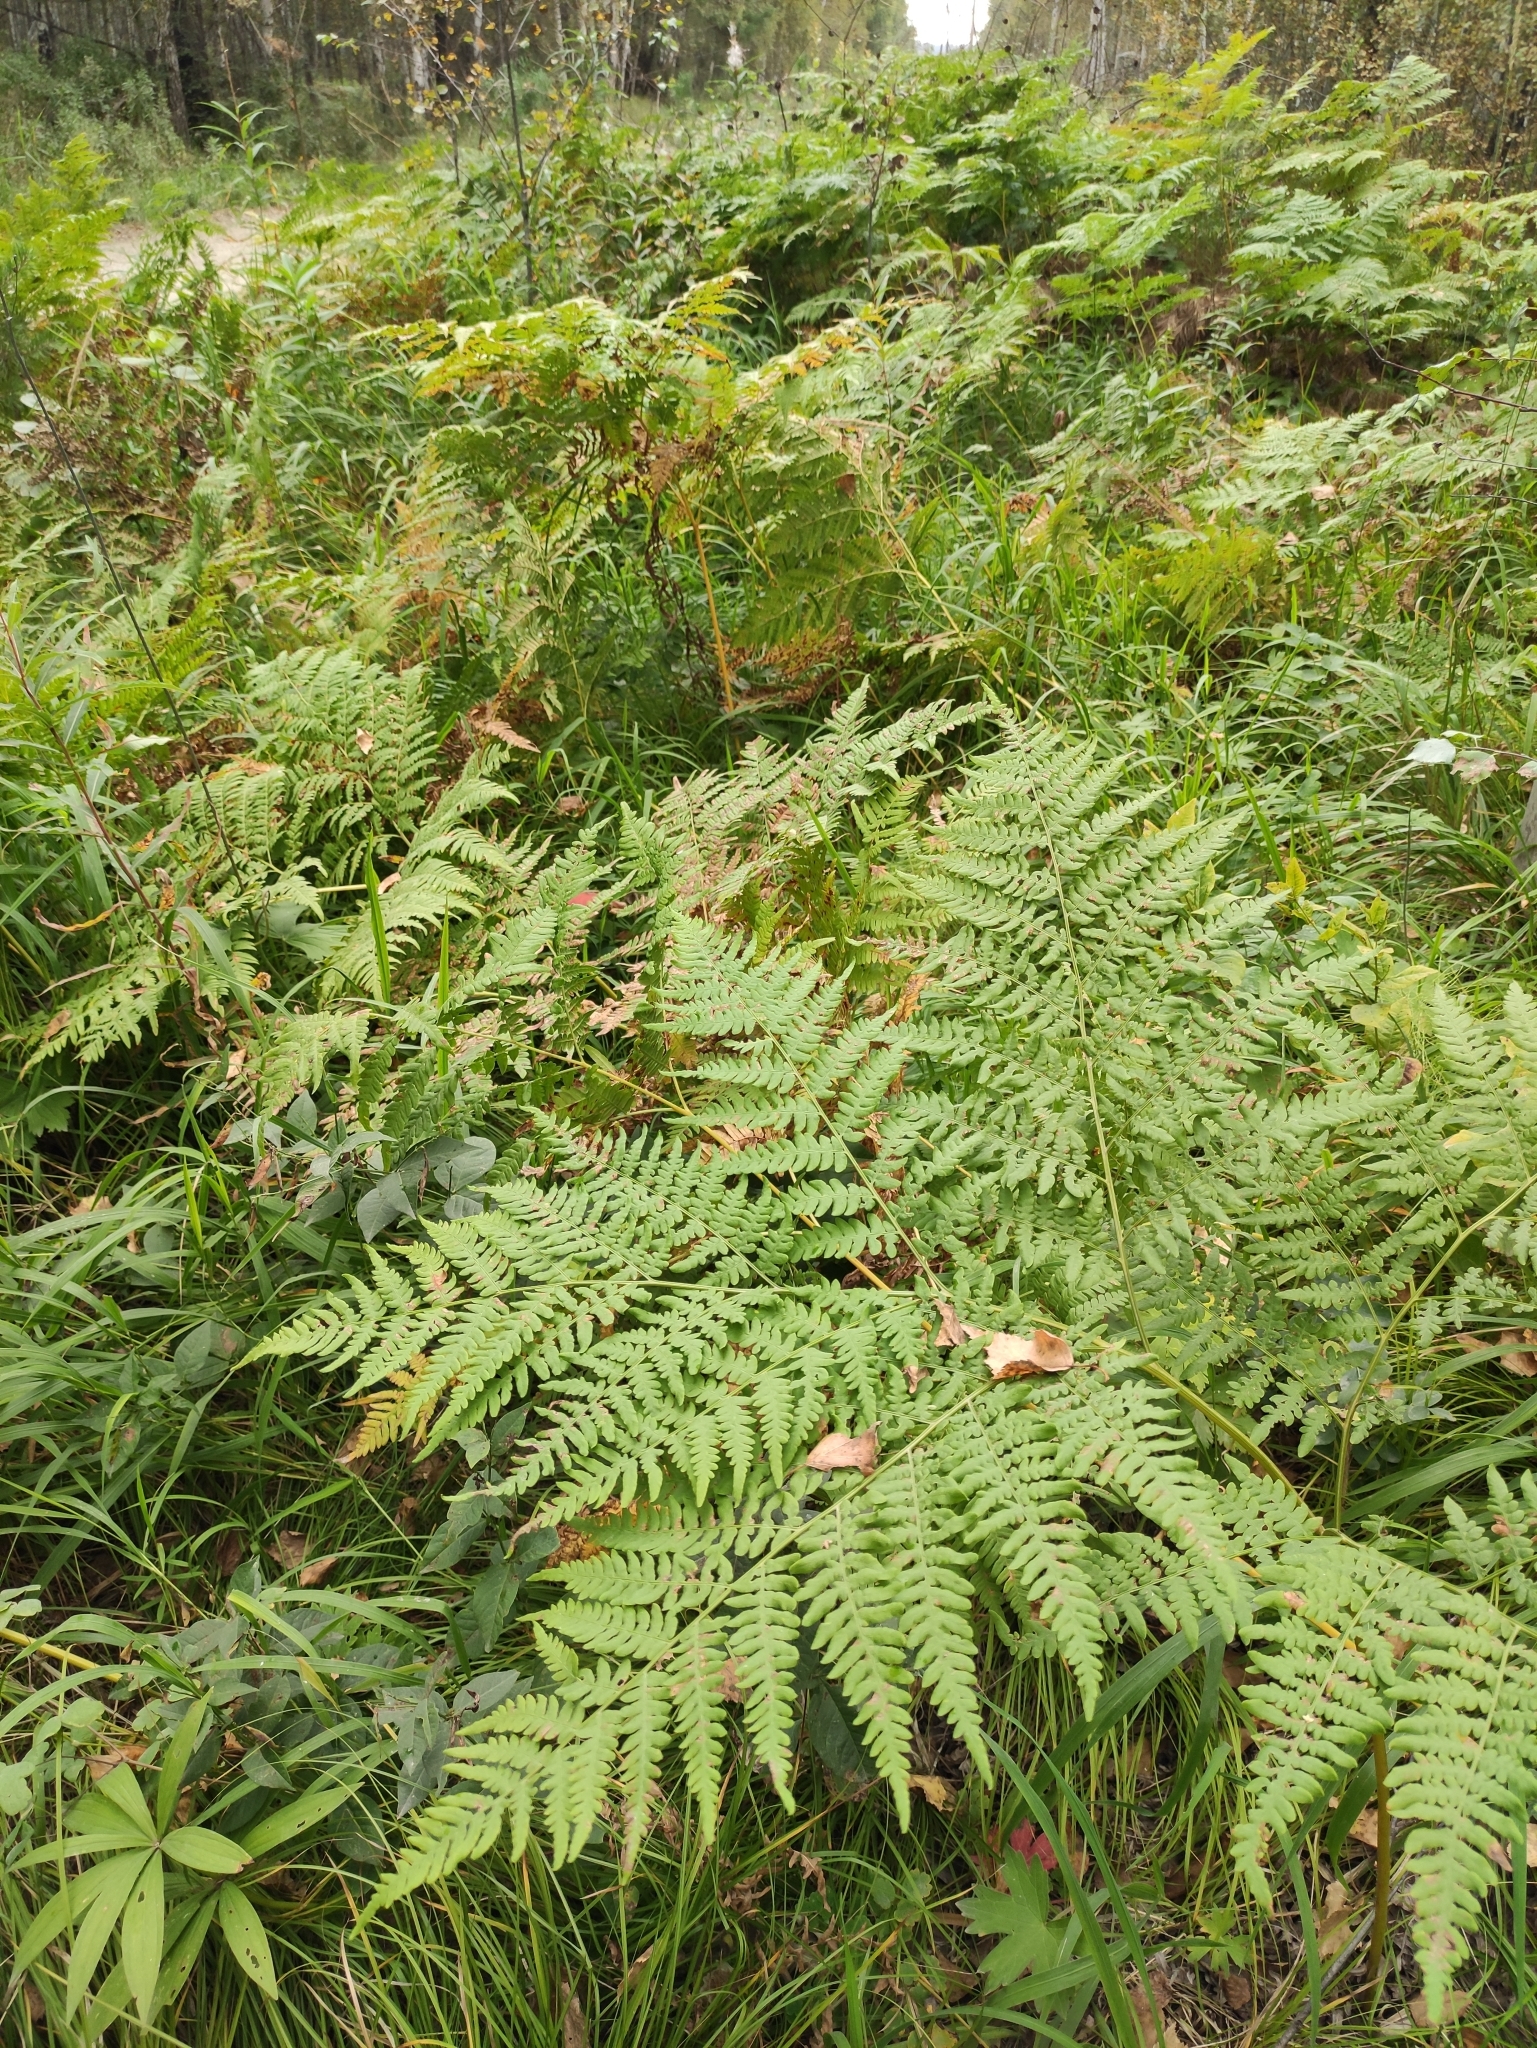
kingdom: Plantae
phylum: Tracheophyta
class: Polypodiopsida
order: Polypodiales
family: Dennstaedtiaceae
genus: Pteridium
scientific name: Pteridium aquilinum
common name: Bracken
